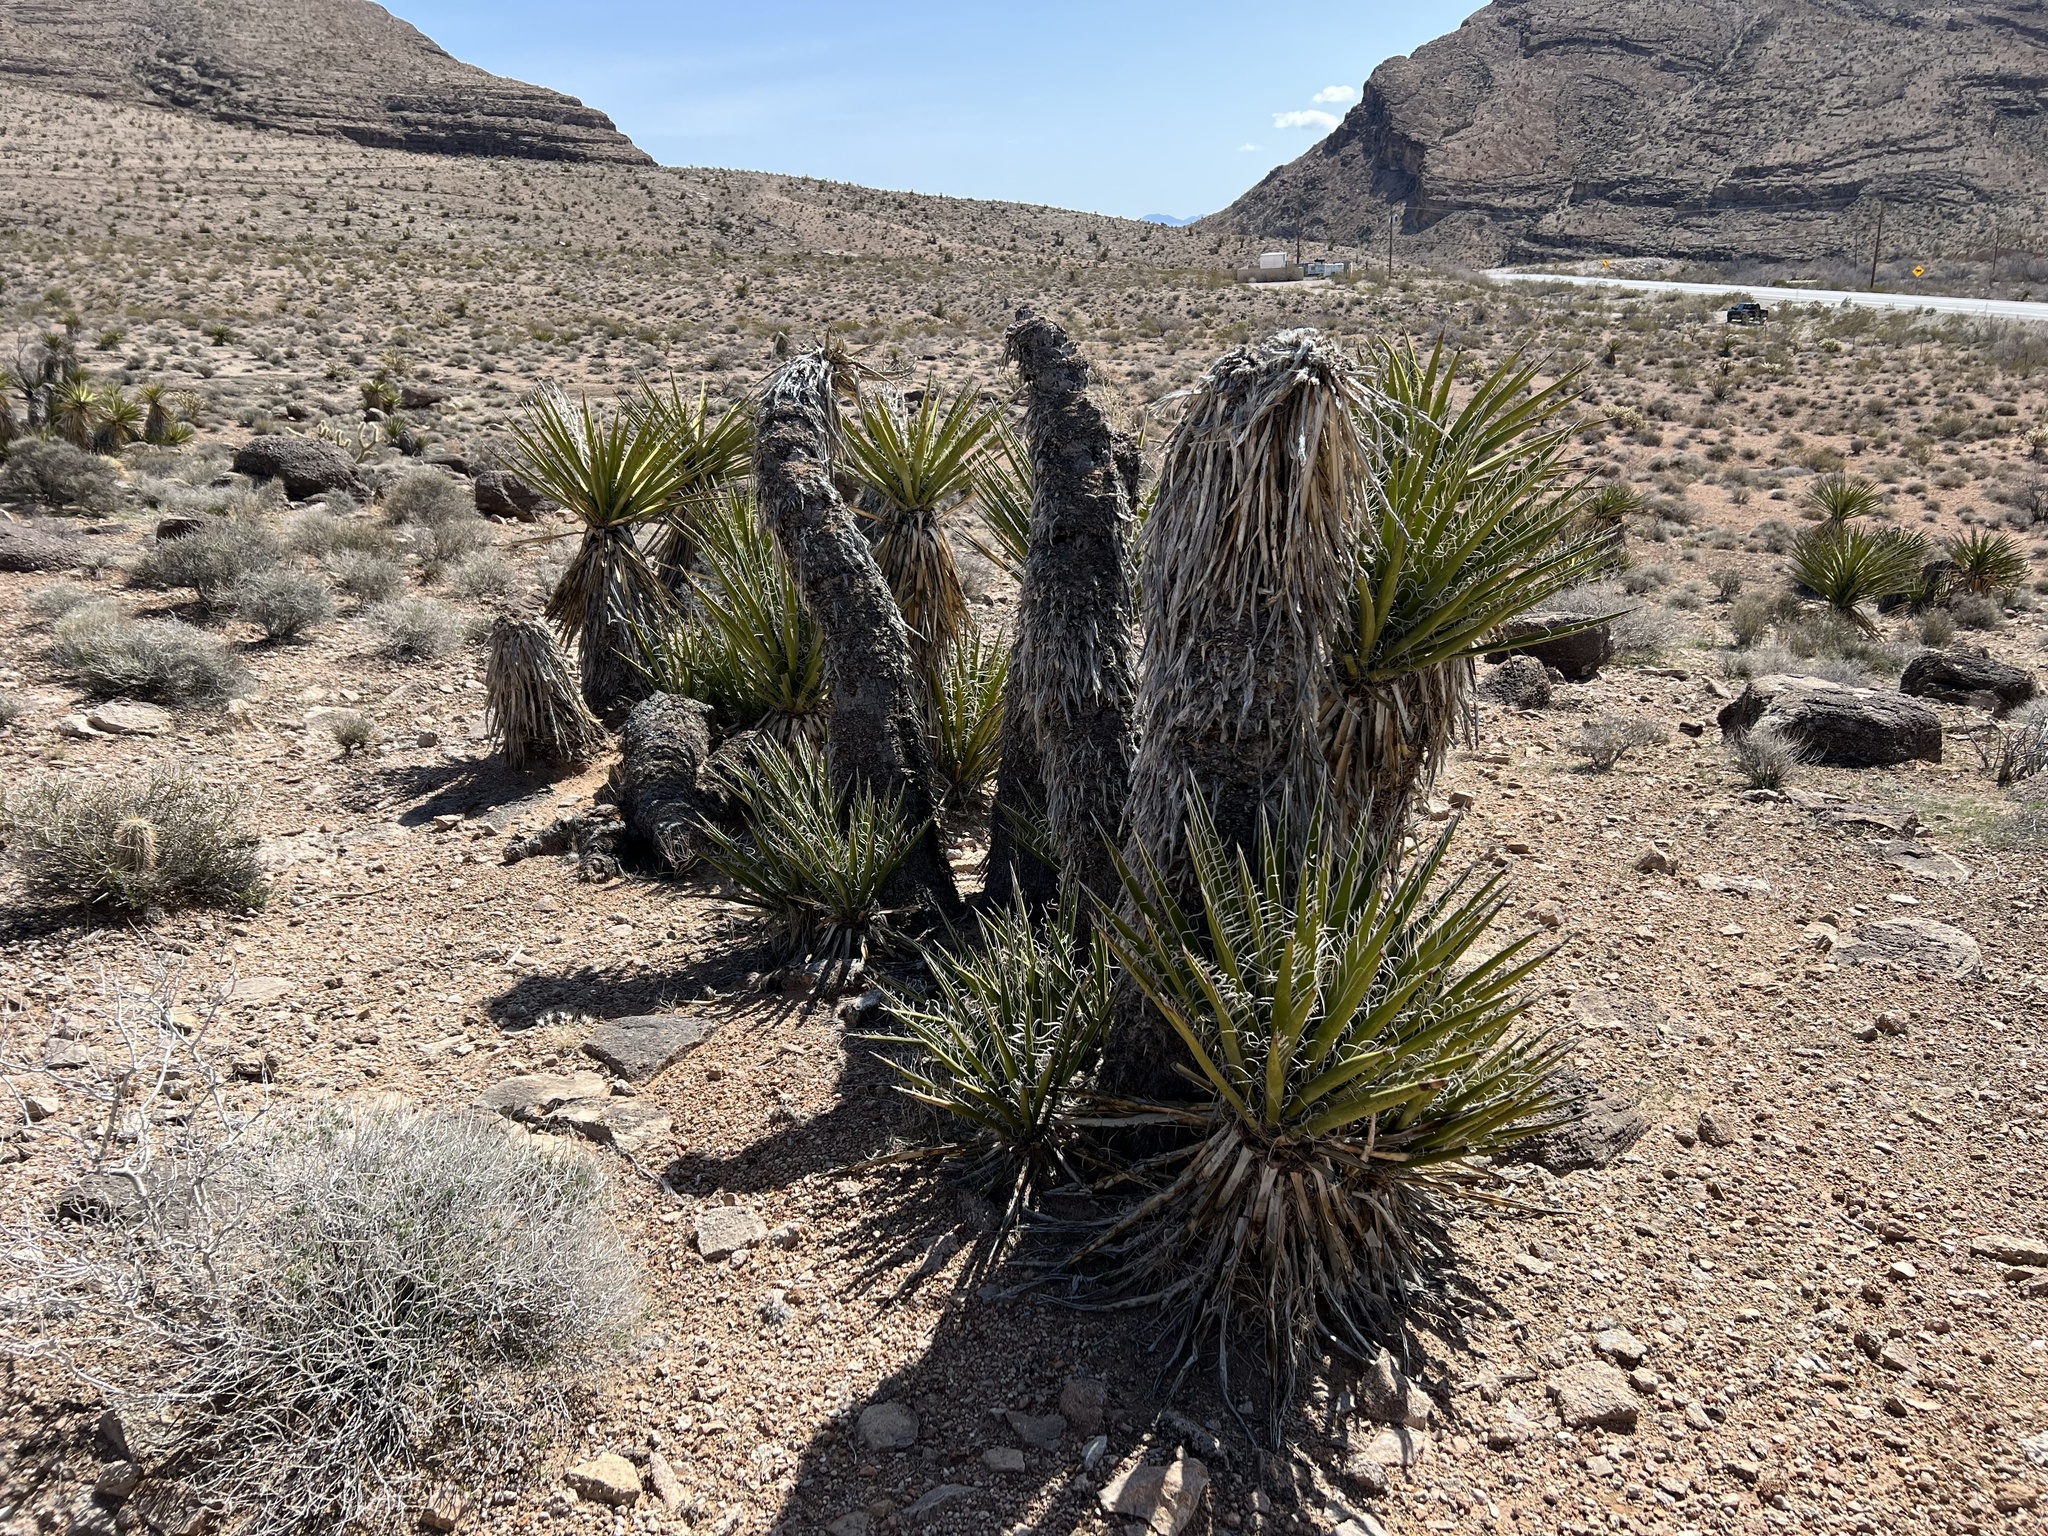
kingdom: Plantae
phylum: Tracheophyta
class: Liliopsida
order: Asparagales
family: Asparagaceae
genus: Yucca
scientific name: Yucca schidigera
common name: Mojave yucca
